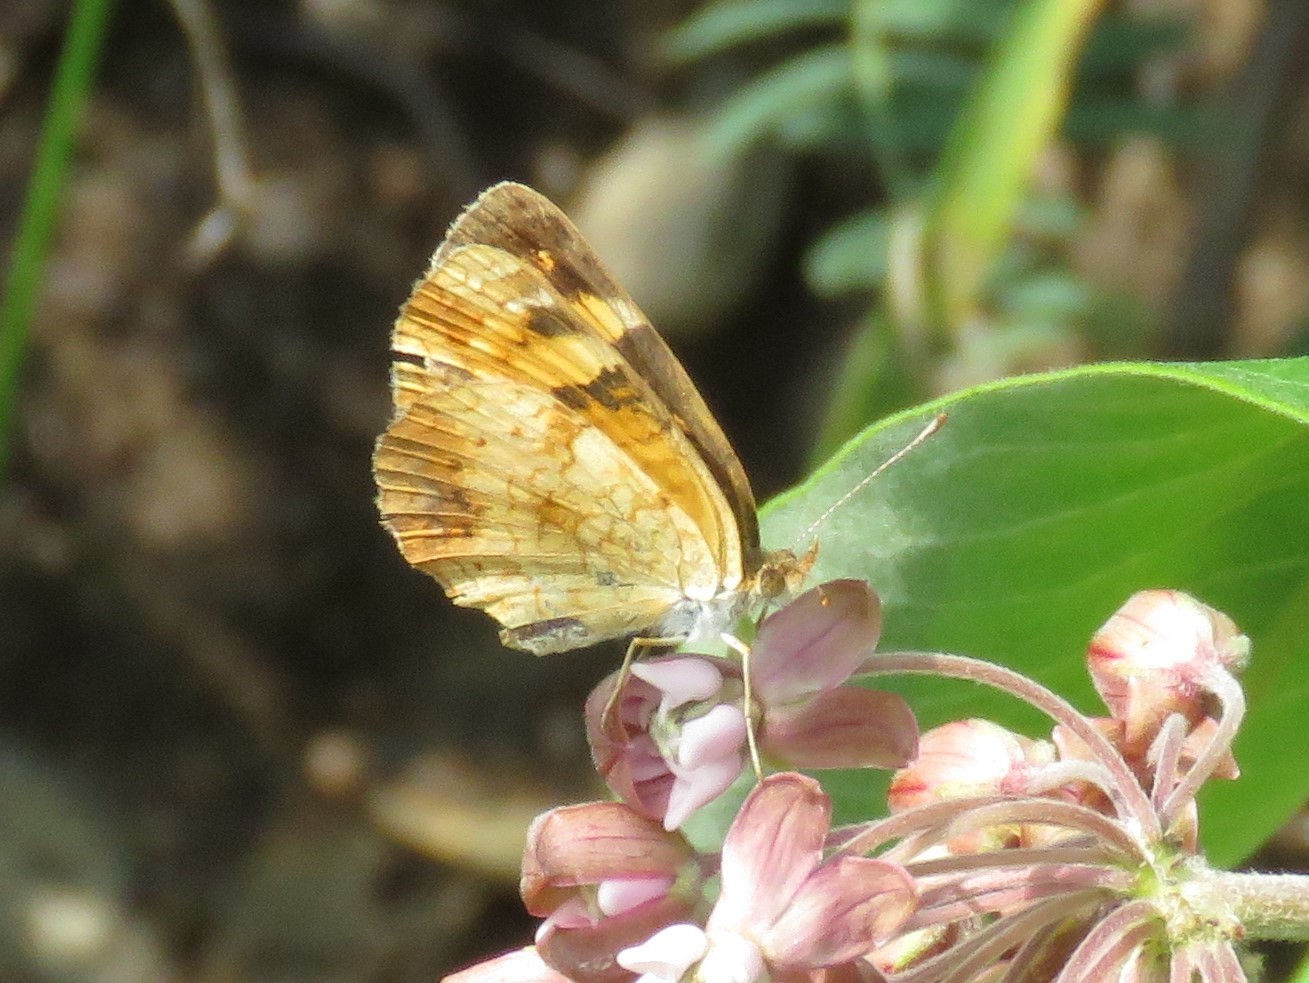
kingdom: Animalia
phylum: Arthropoda
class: Insecta
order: Lepidoptera
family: Nymphalidae
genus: Phyciodes
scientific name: Phyciodes tharos
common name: Pearl crescent
